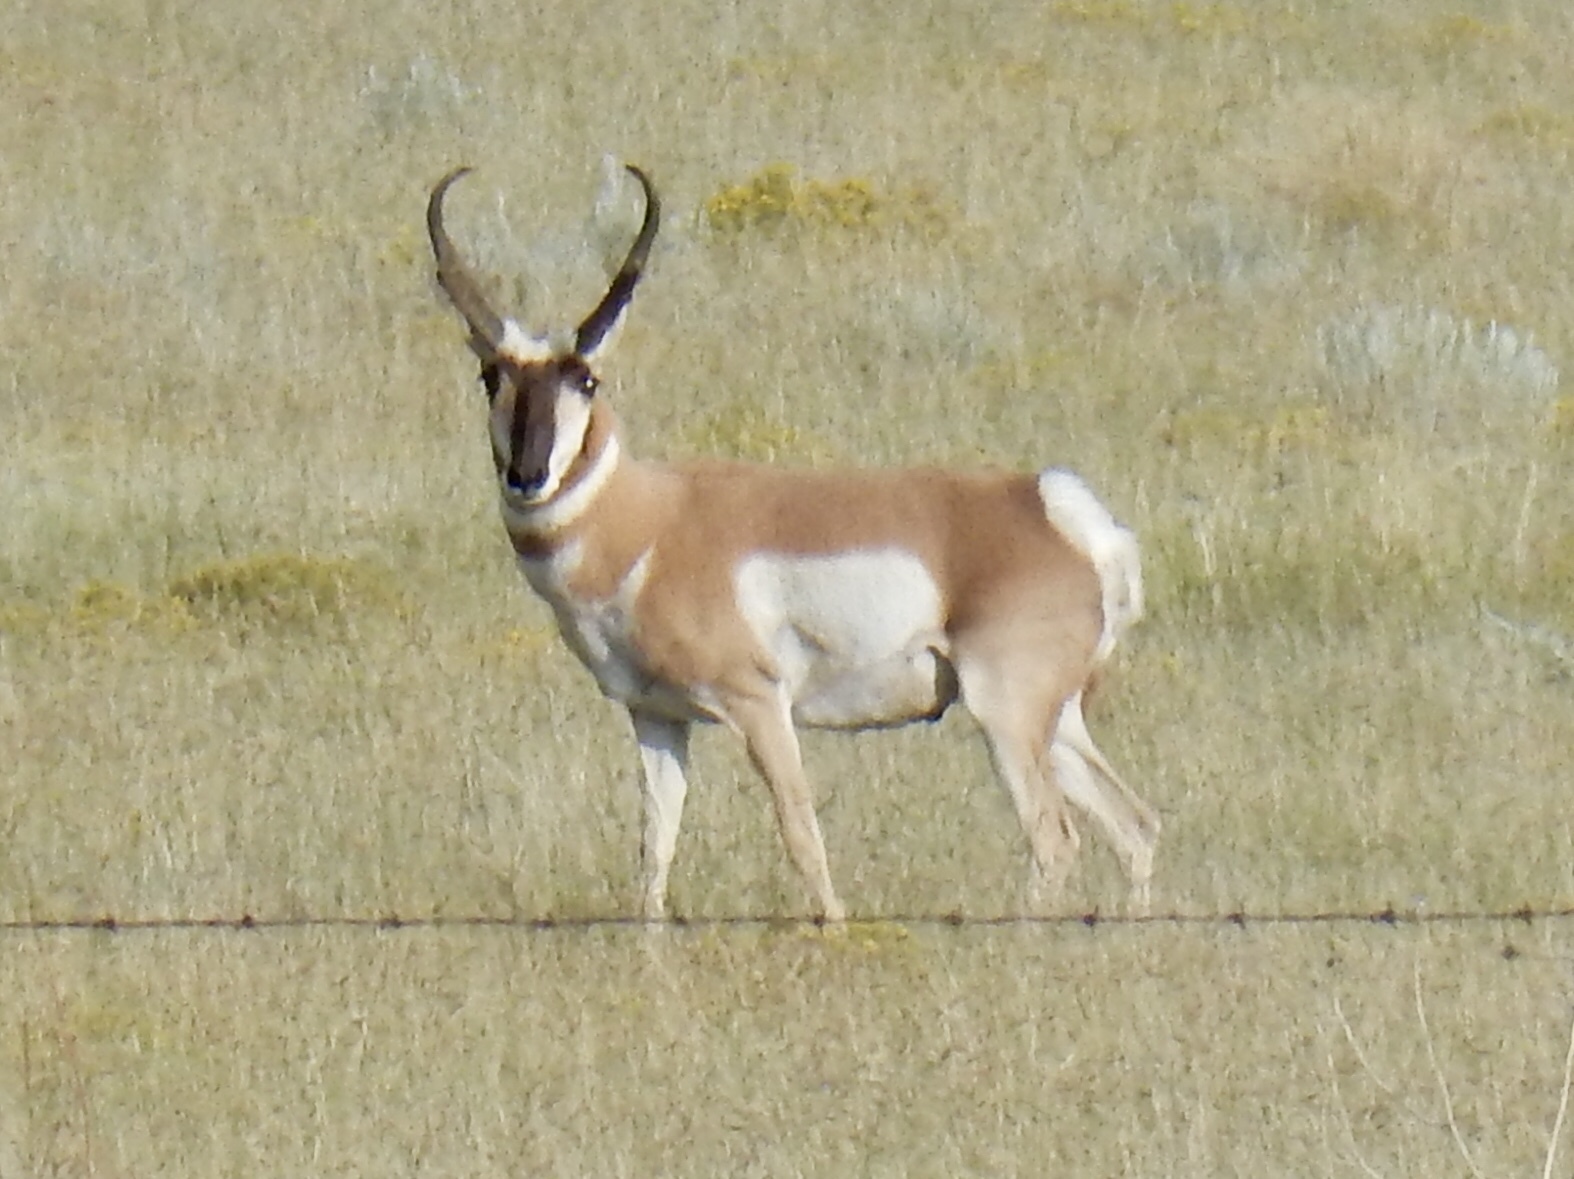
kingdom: Animalia
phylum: Chordata
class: Mammalia
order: Artiodactyla
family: Antilocapridae
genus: Antilocapra
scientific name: Antilocapra americana
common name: Pronghorn
